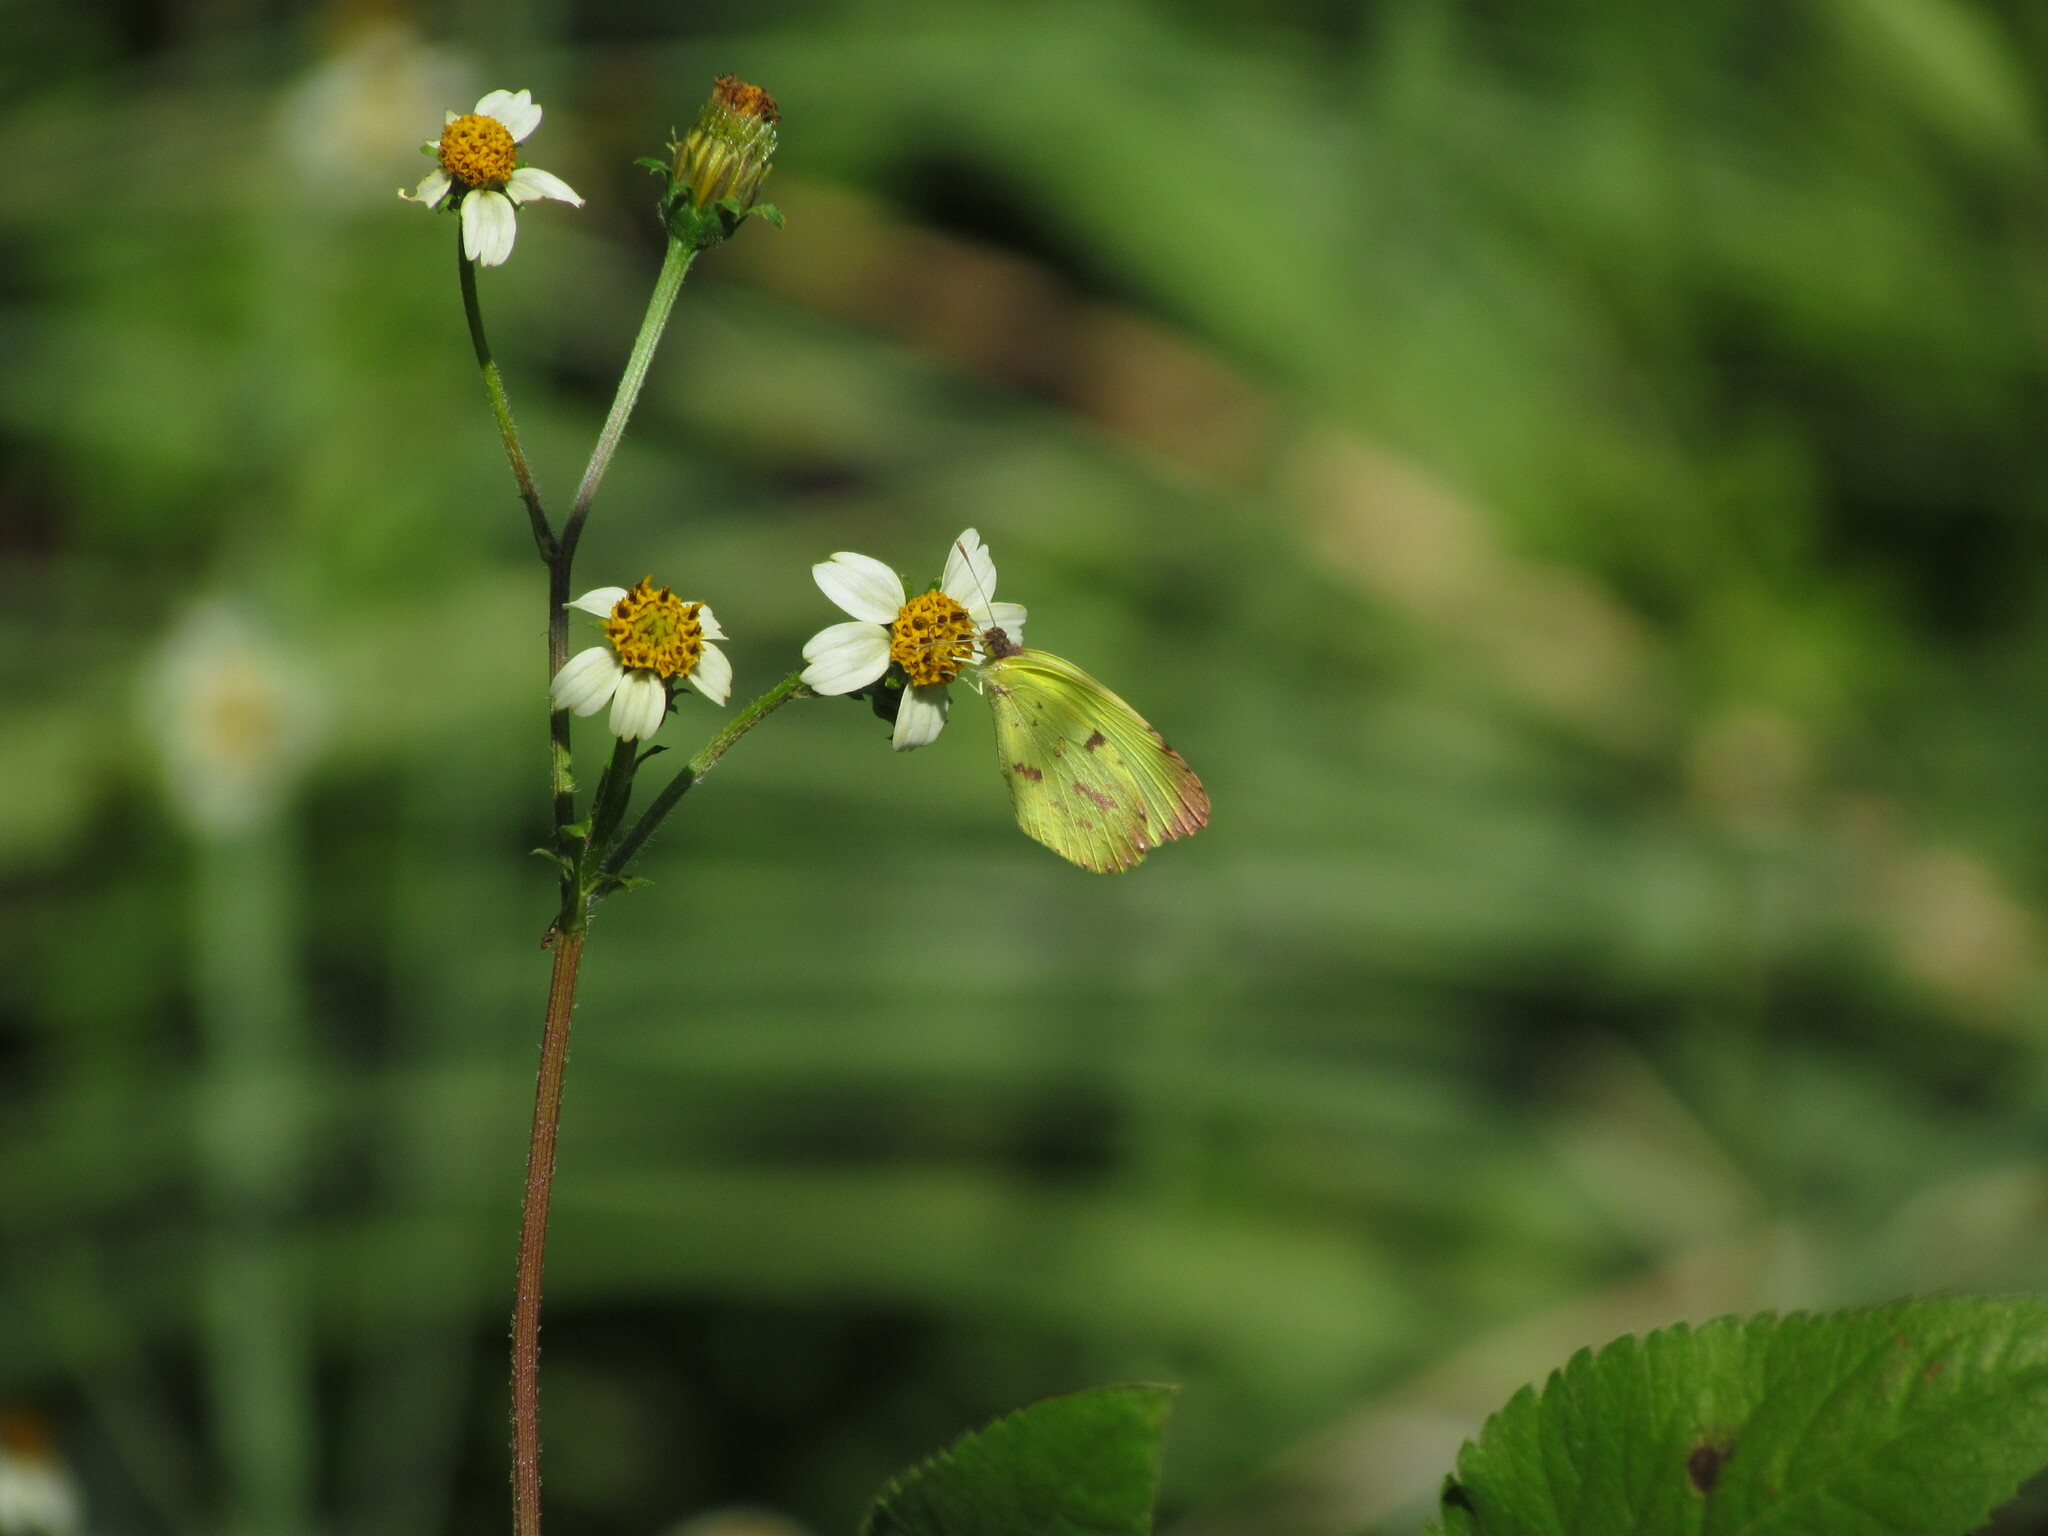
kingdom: Animalia
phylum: Arthropoda
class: Insecta
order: Lepidoptera
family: Pieridae
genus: Teriocolias
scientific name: Teriocolias
